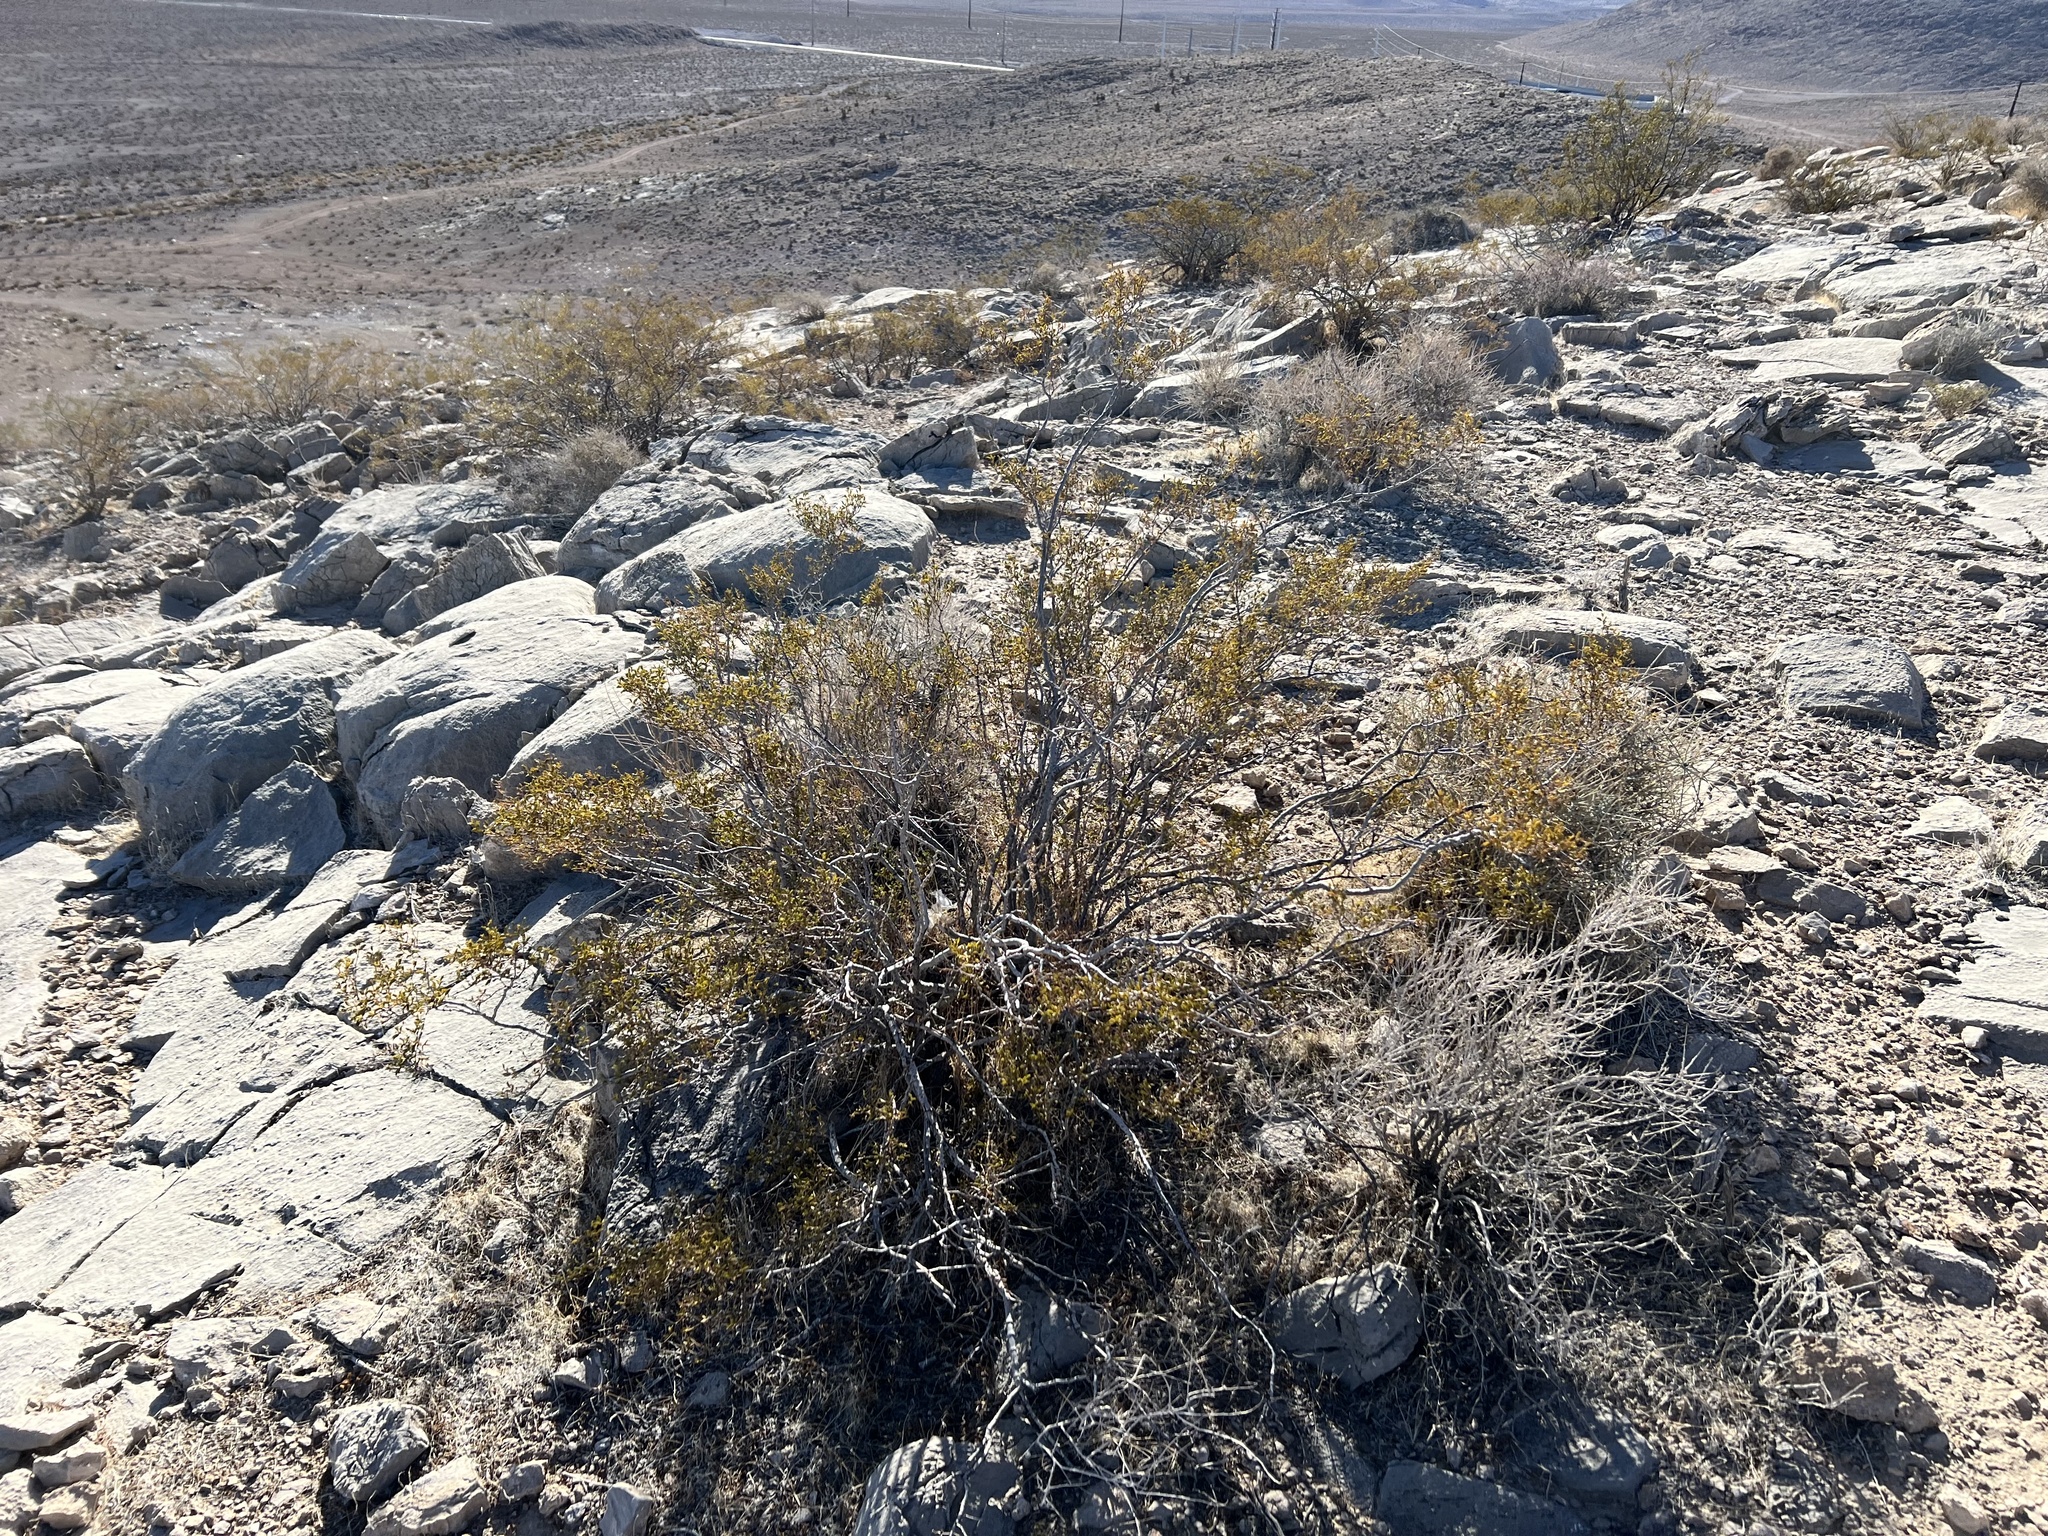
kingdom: Plantae
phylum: Tracheophyta
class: Magnoliopsida
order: Zygophyllales
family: Zygophyllaceae
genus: Larrea
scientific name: Larrea tridentata
